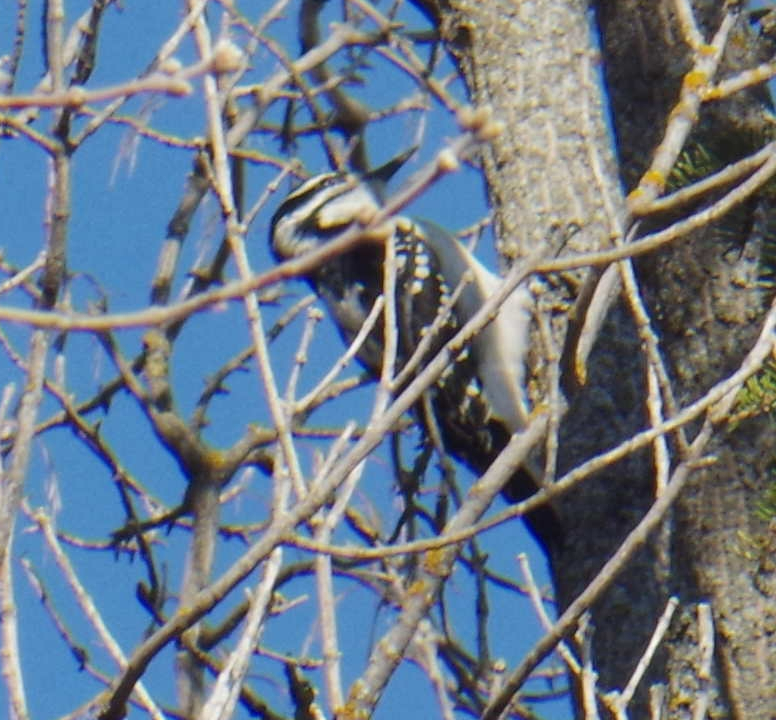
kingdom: Animalia
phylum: Chordata
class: Aves
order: Piciformes
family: Picidae
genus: Leuconotopicus
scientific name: Leuconotopicus villosus
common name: Hairy woodpecker
